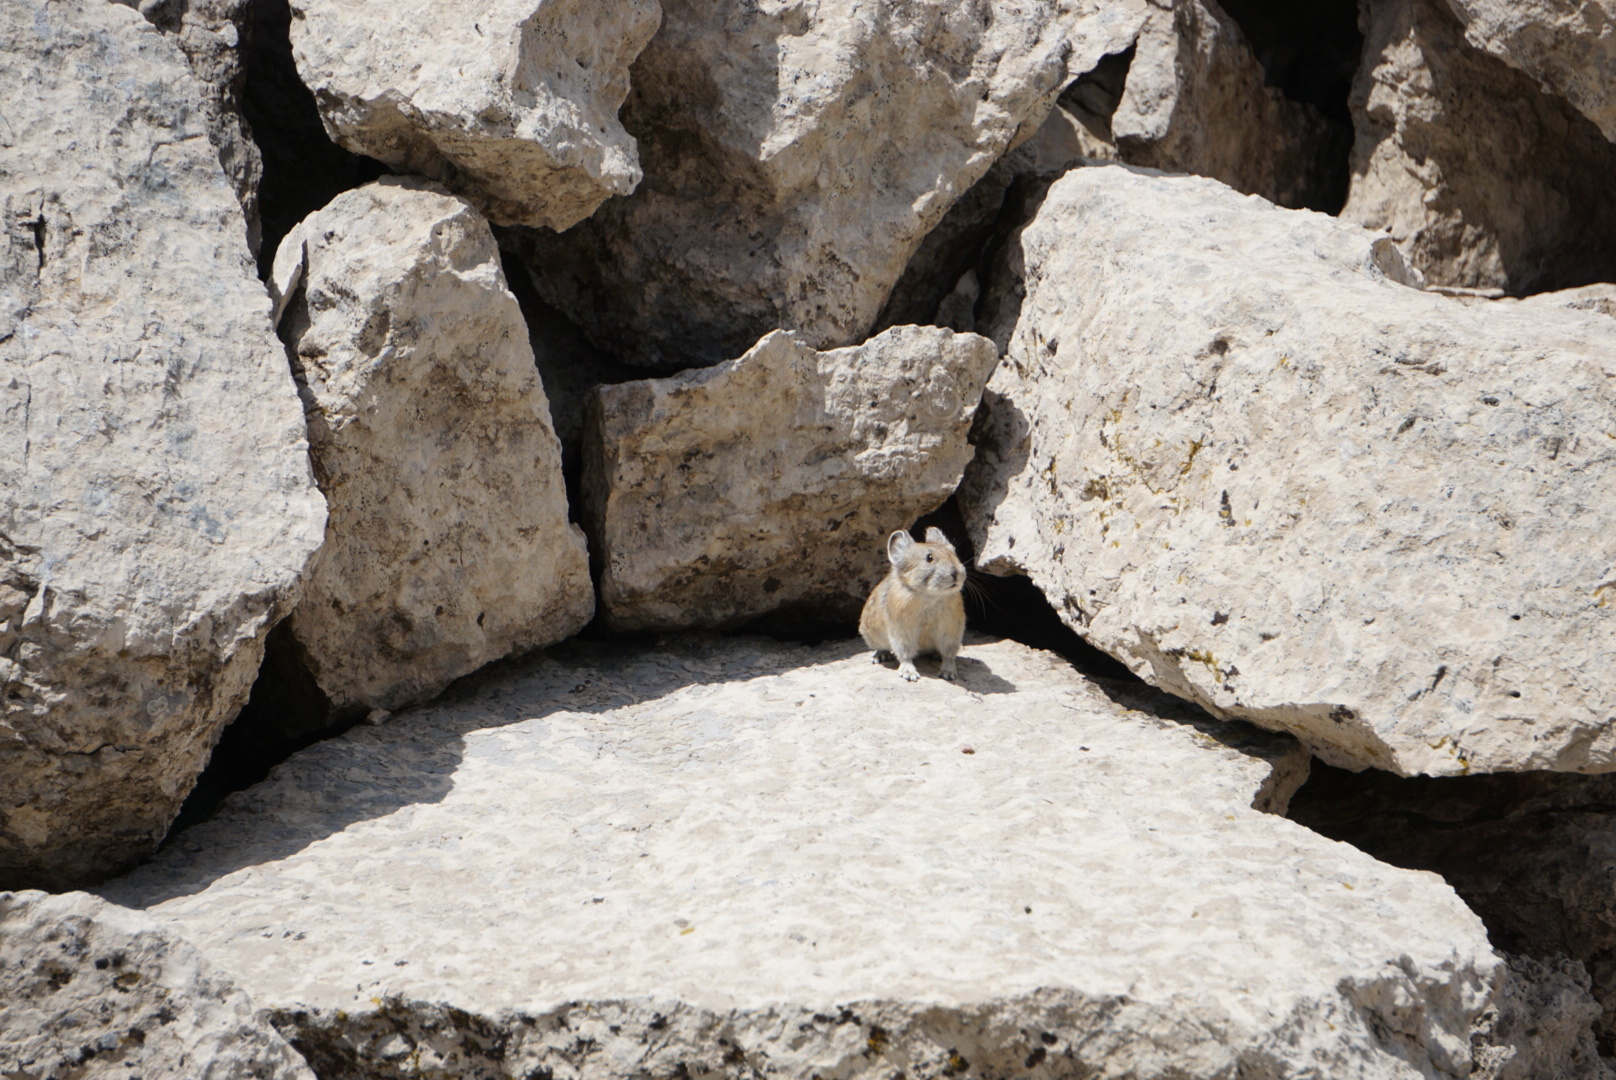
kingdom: Animalia
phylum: Chordata
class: Mammalia
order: Lagomorpha
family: Ochotonidae
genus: Ochotona
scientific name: Ochotona princeps
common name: American pika
